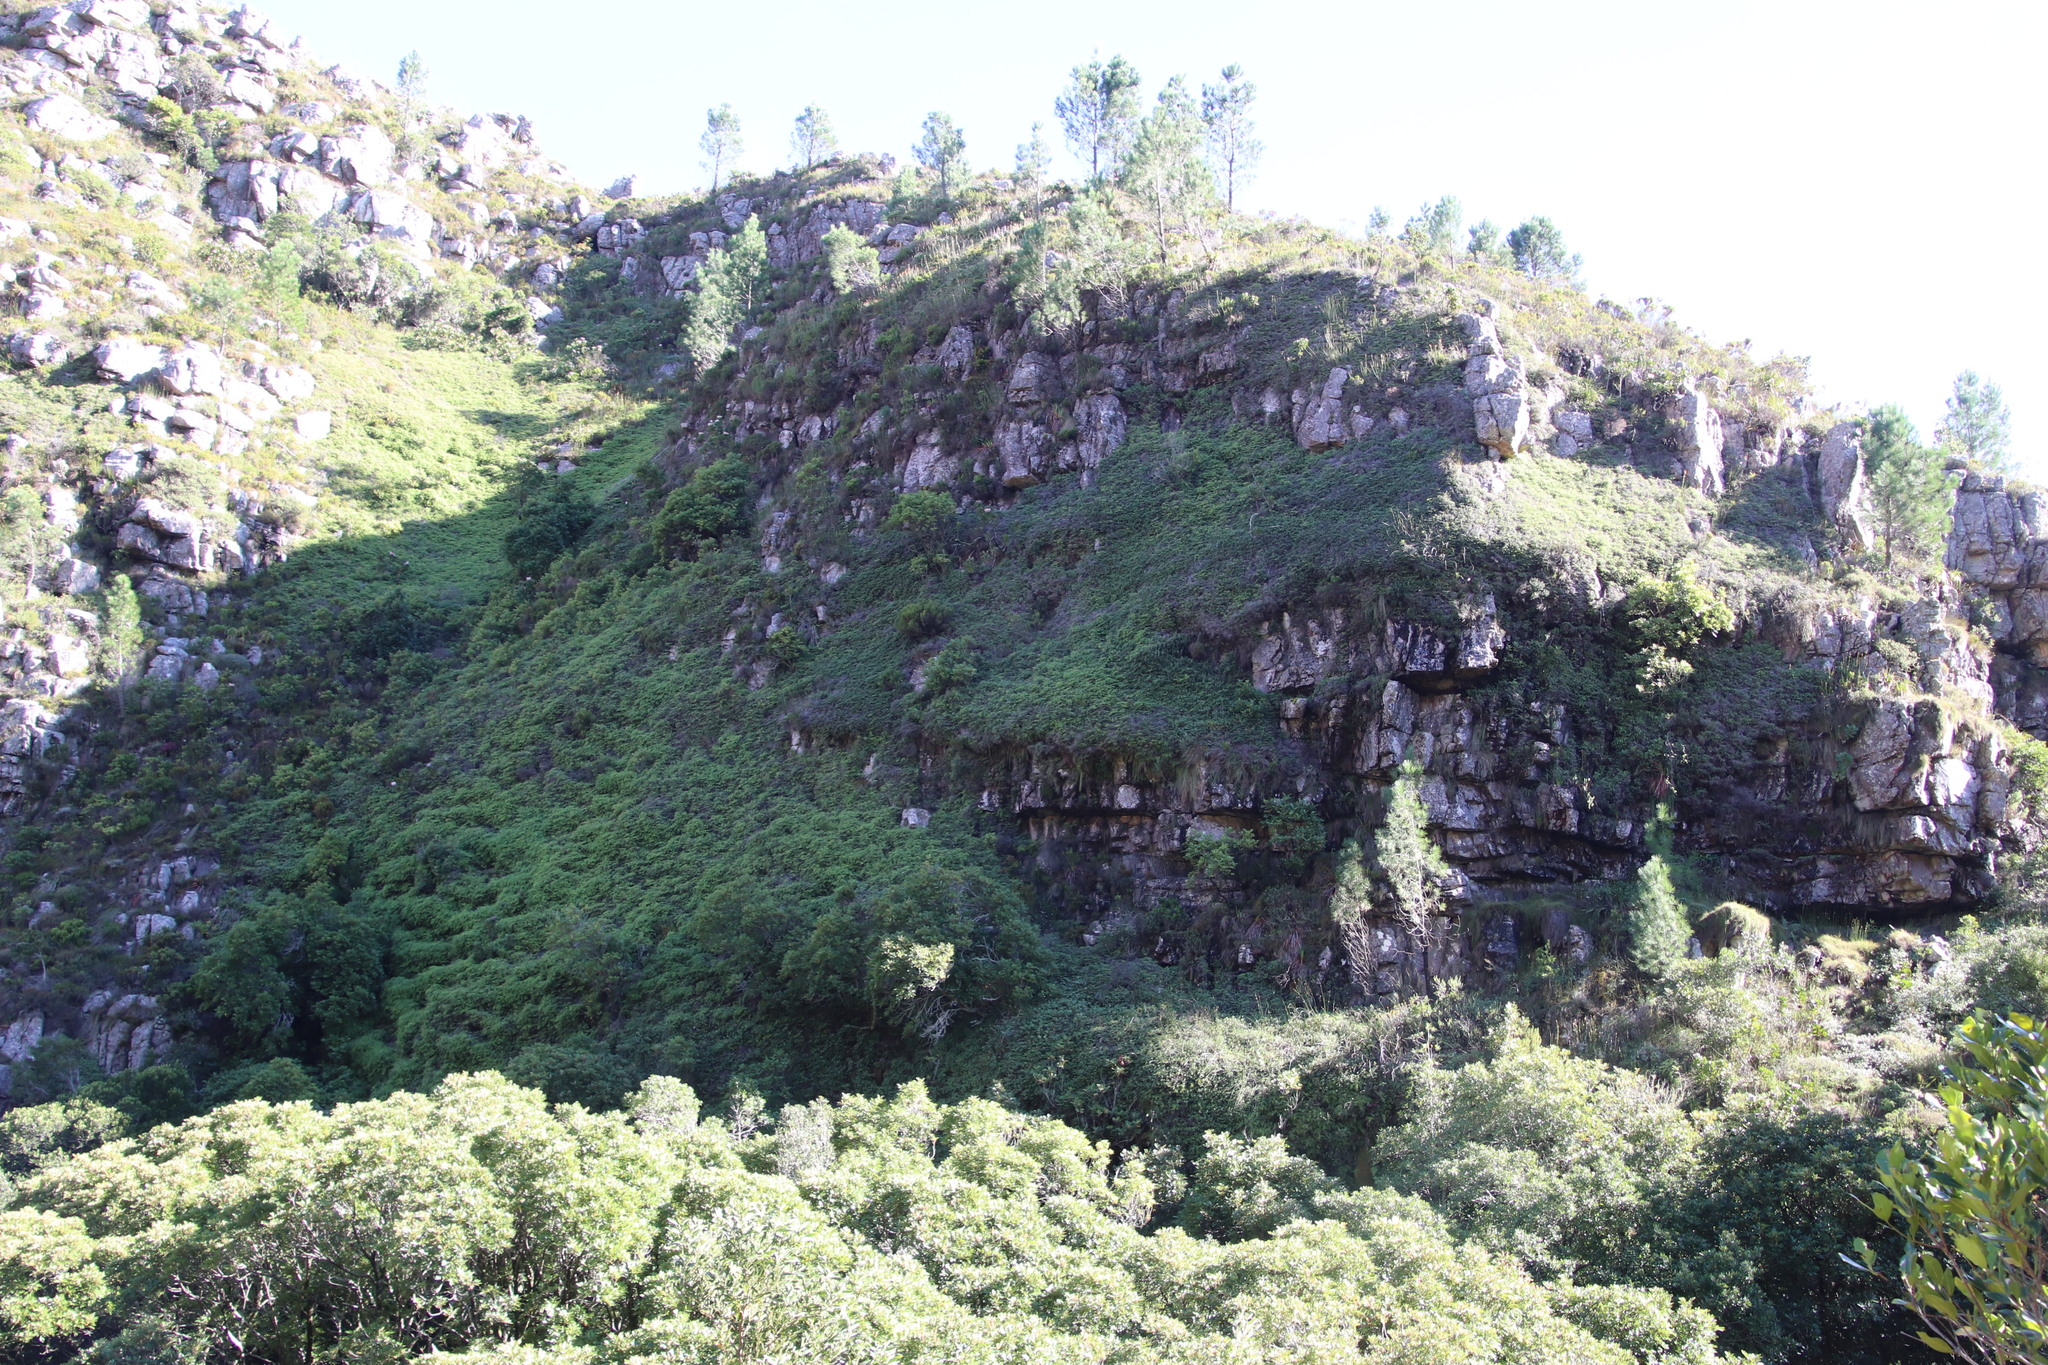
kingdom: Plantae
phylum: Tracheophyta
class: Polypodiopsida
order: Gleicheniales
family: Gleicheniaceae
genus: Gleichenia
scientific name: Gleichenia polypodioides
